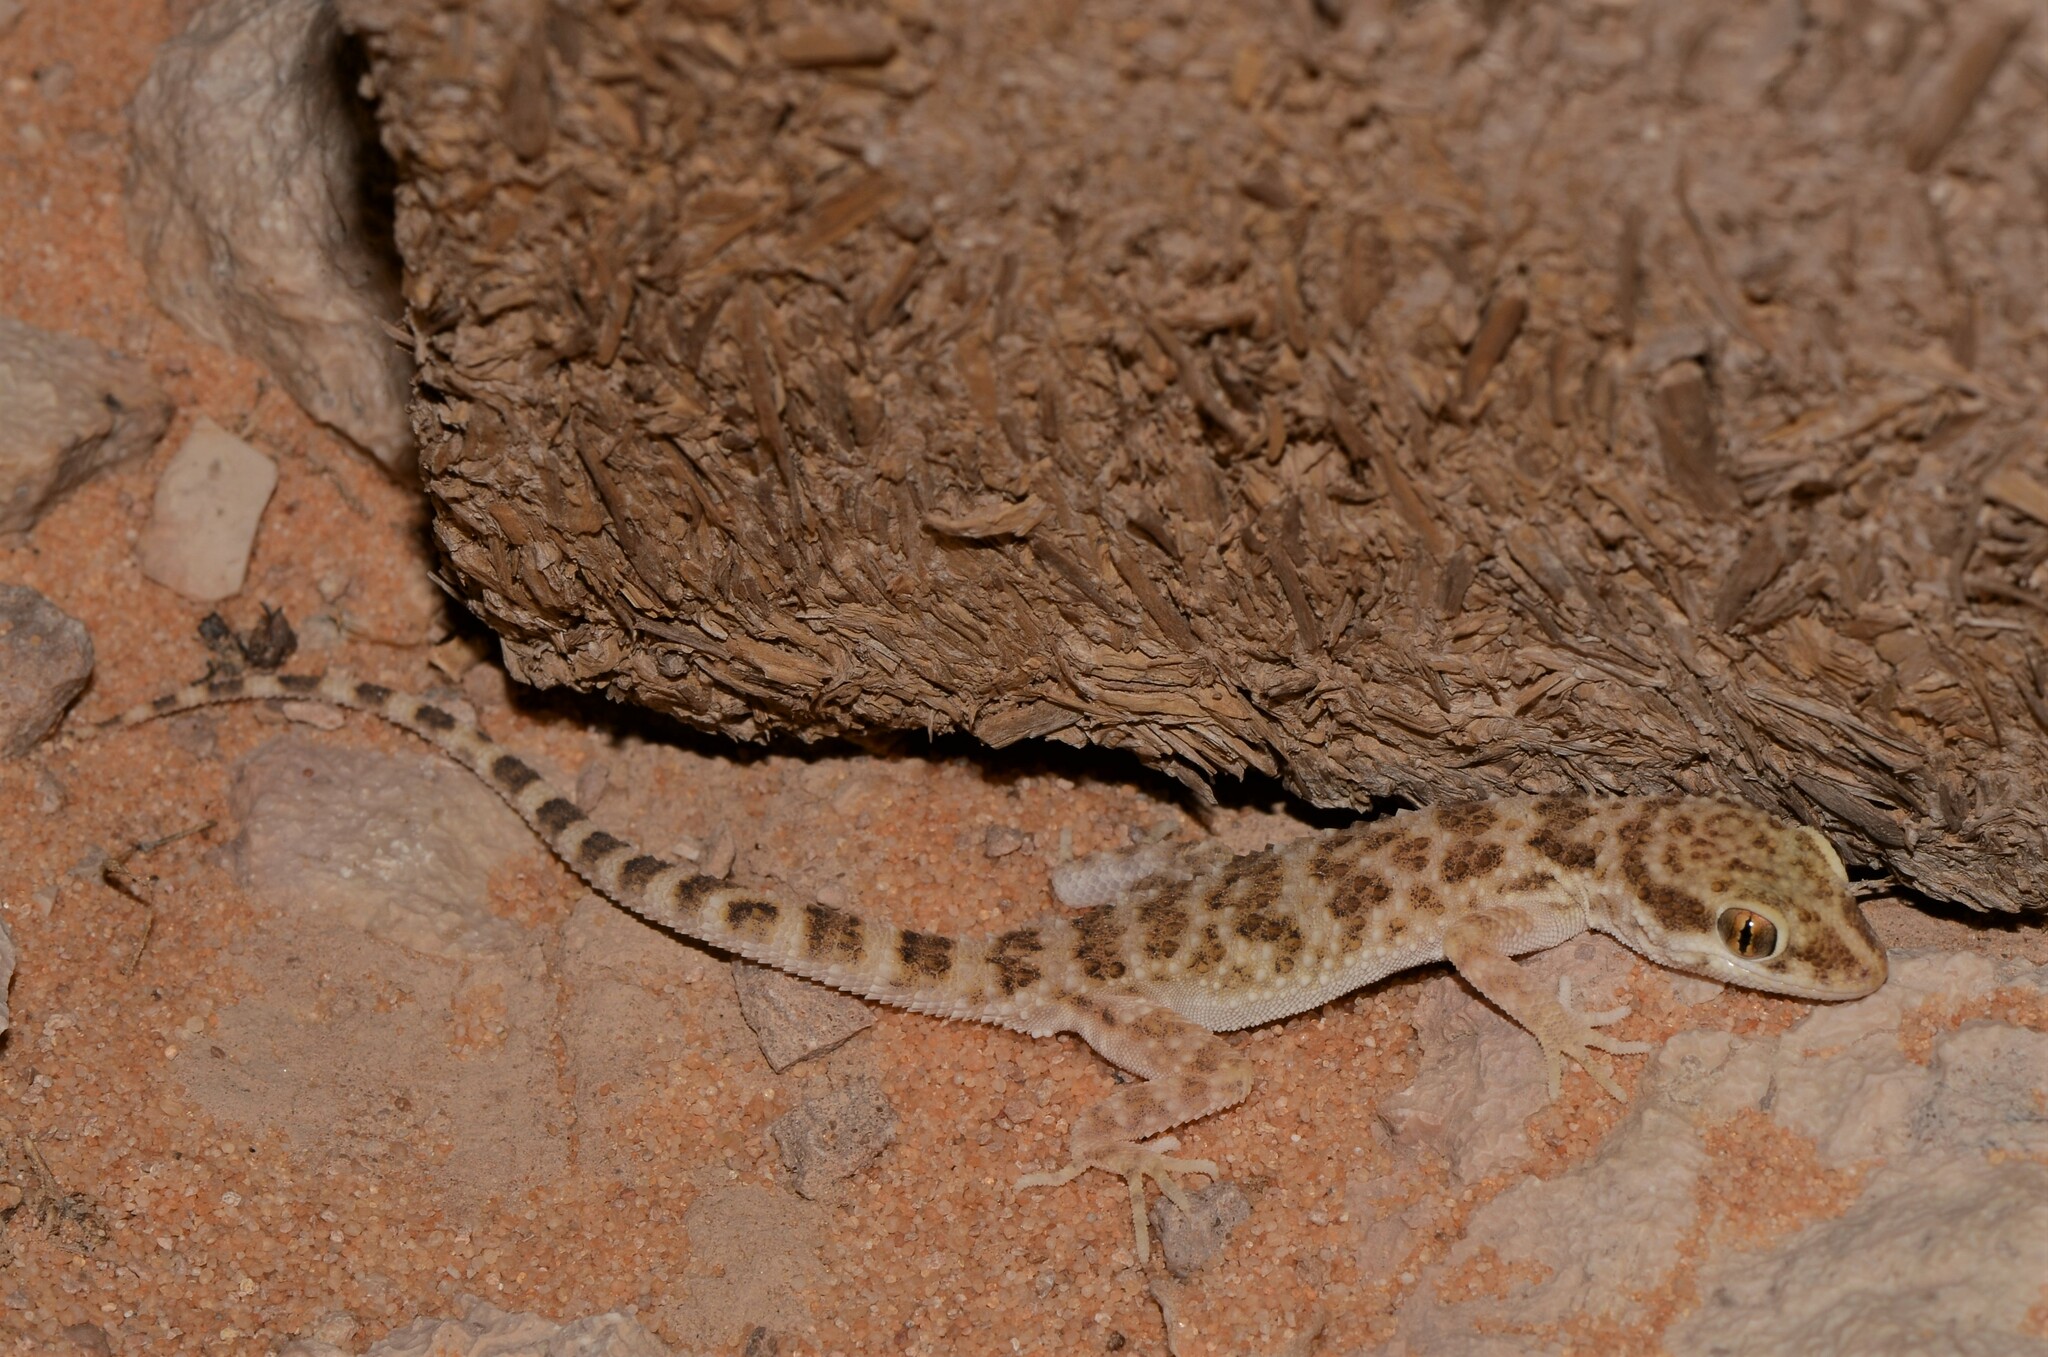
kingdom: Animalia
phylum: Chordata
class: Squamata
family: Gekkonidae
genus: Bunopus
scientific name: Bunopus tuberculatus
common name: Southern tuberculated gecko
